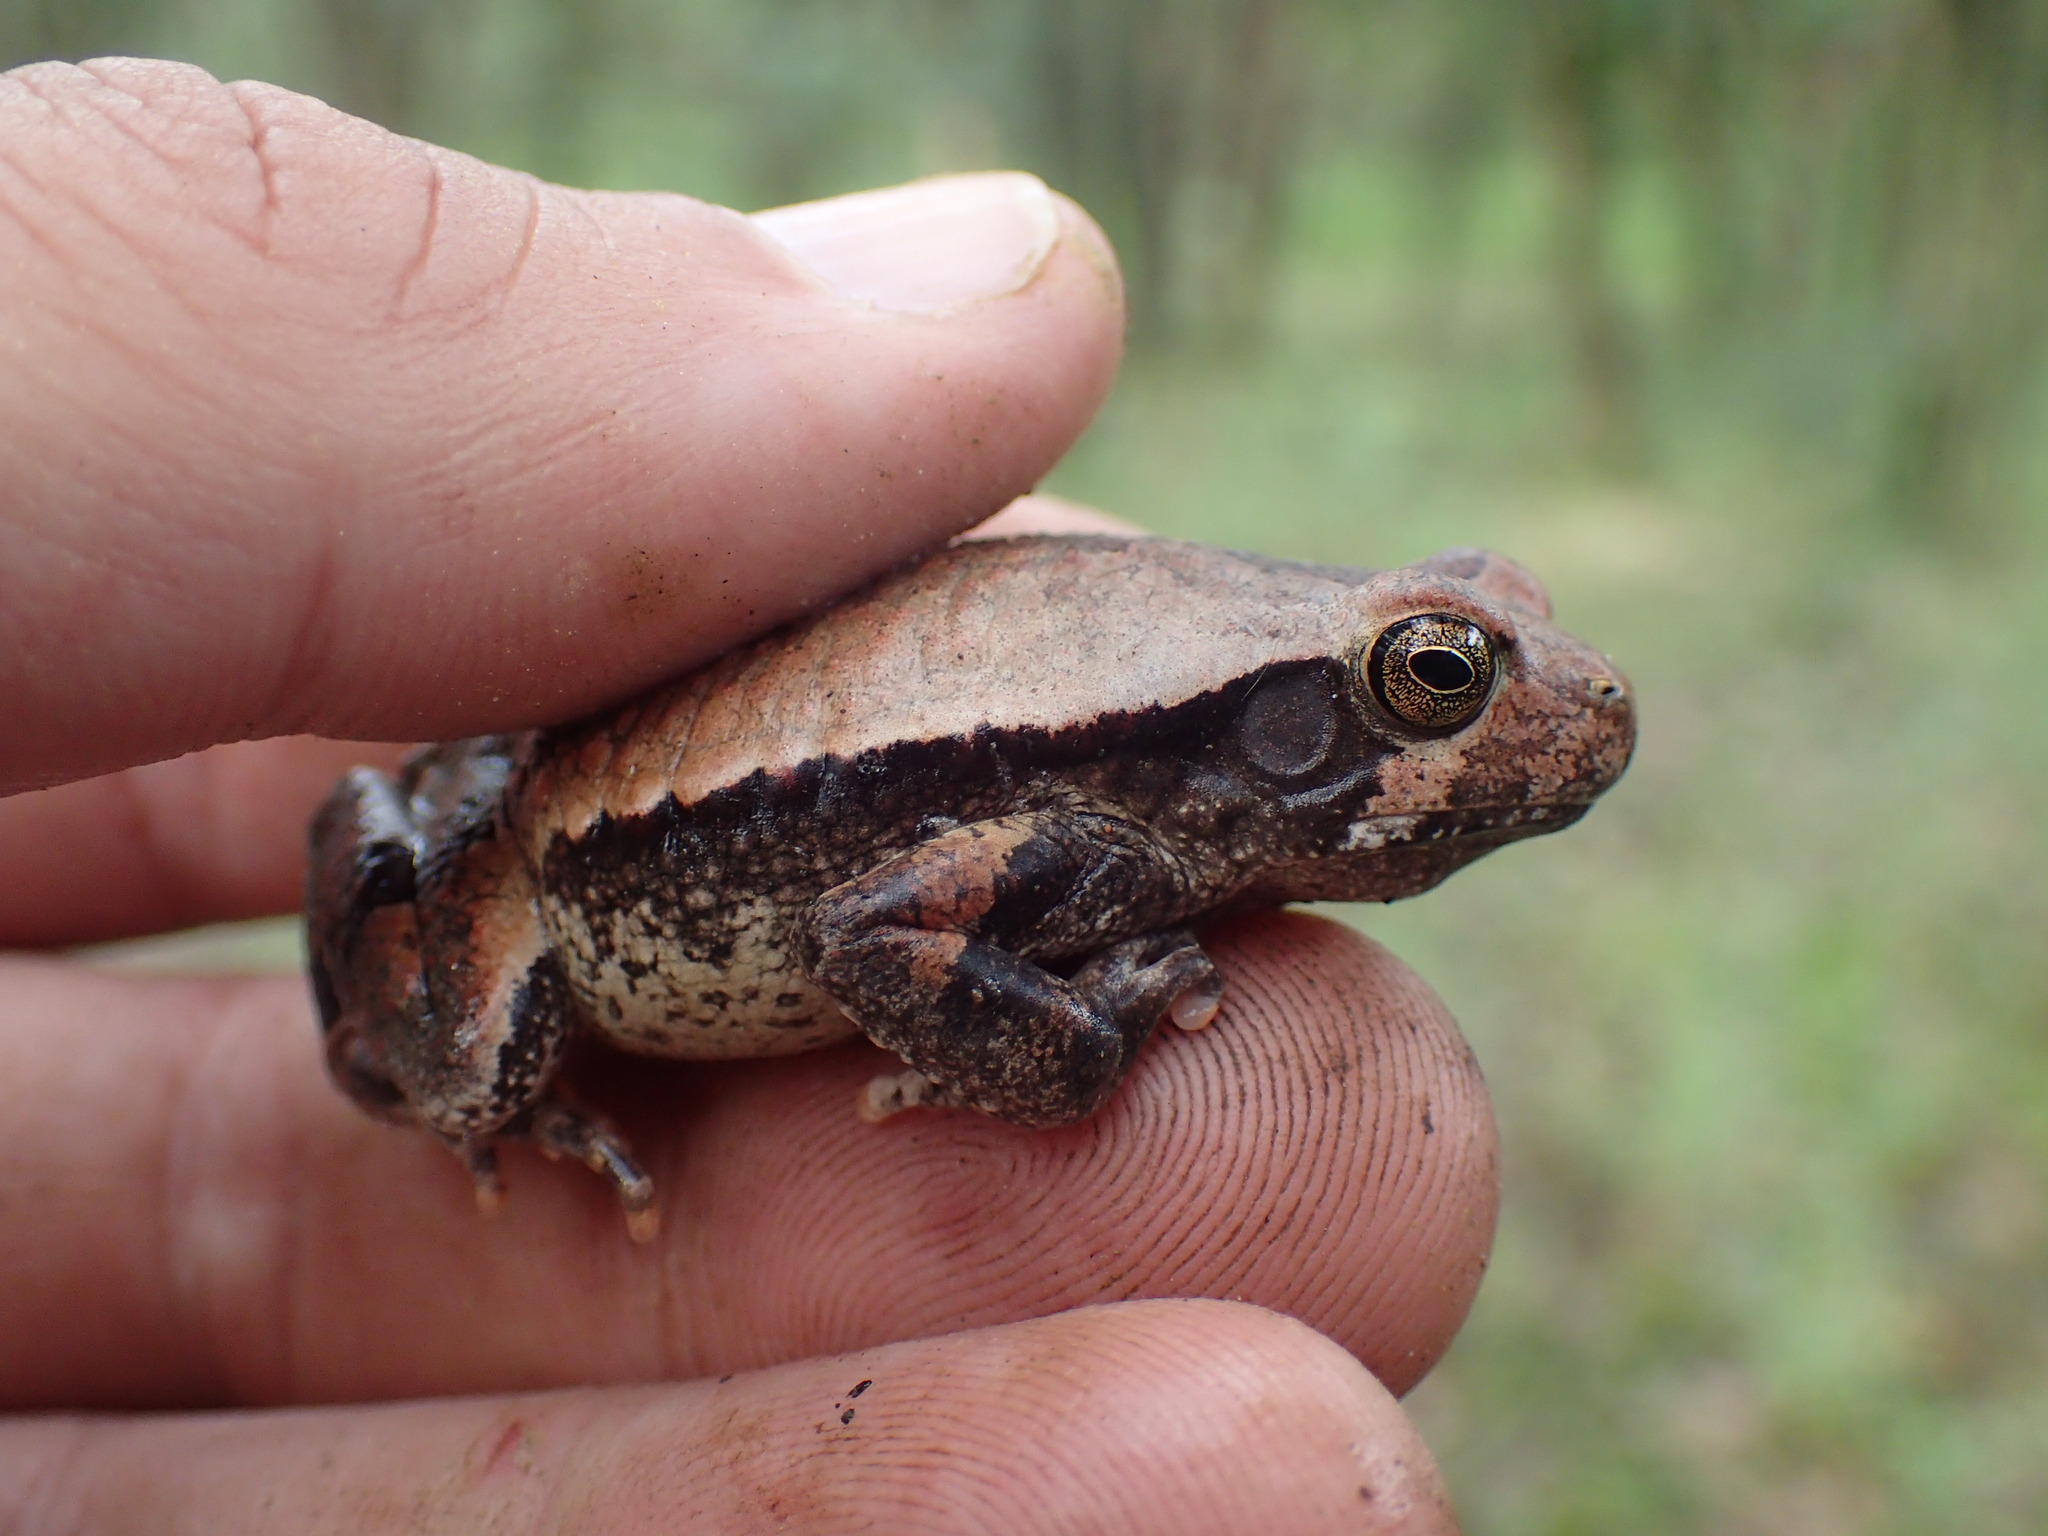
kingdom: Animalia
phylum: Chordata
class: Amphibia
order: Anura
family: Bufonidae
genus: Schismaderma
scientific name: Schismaderma carens
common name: African split-skin toad
